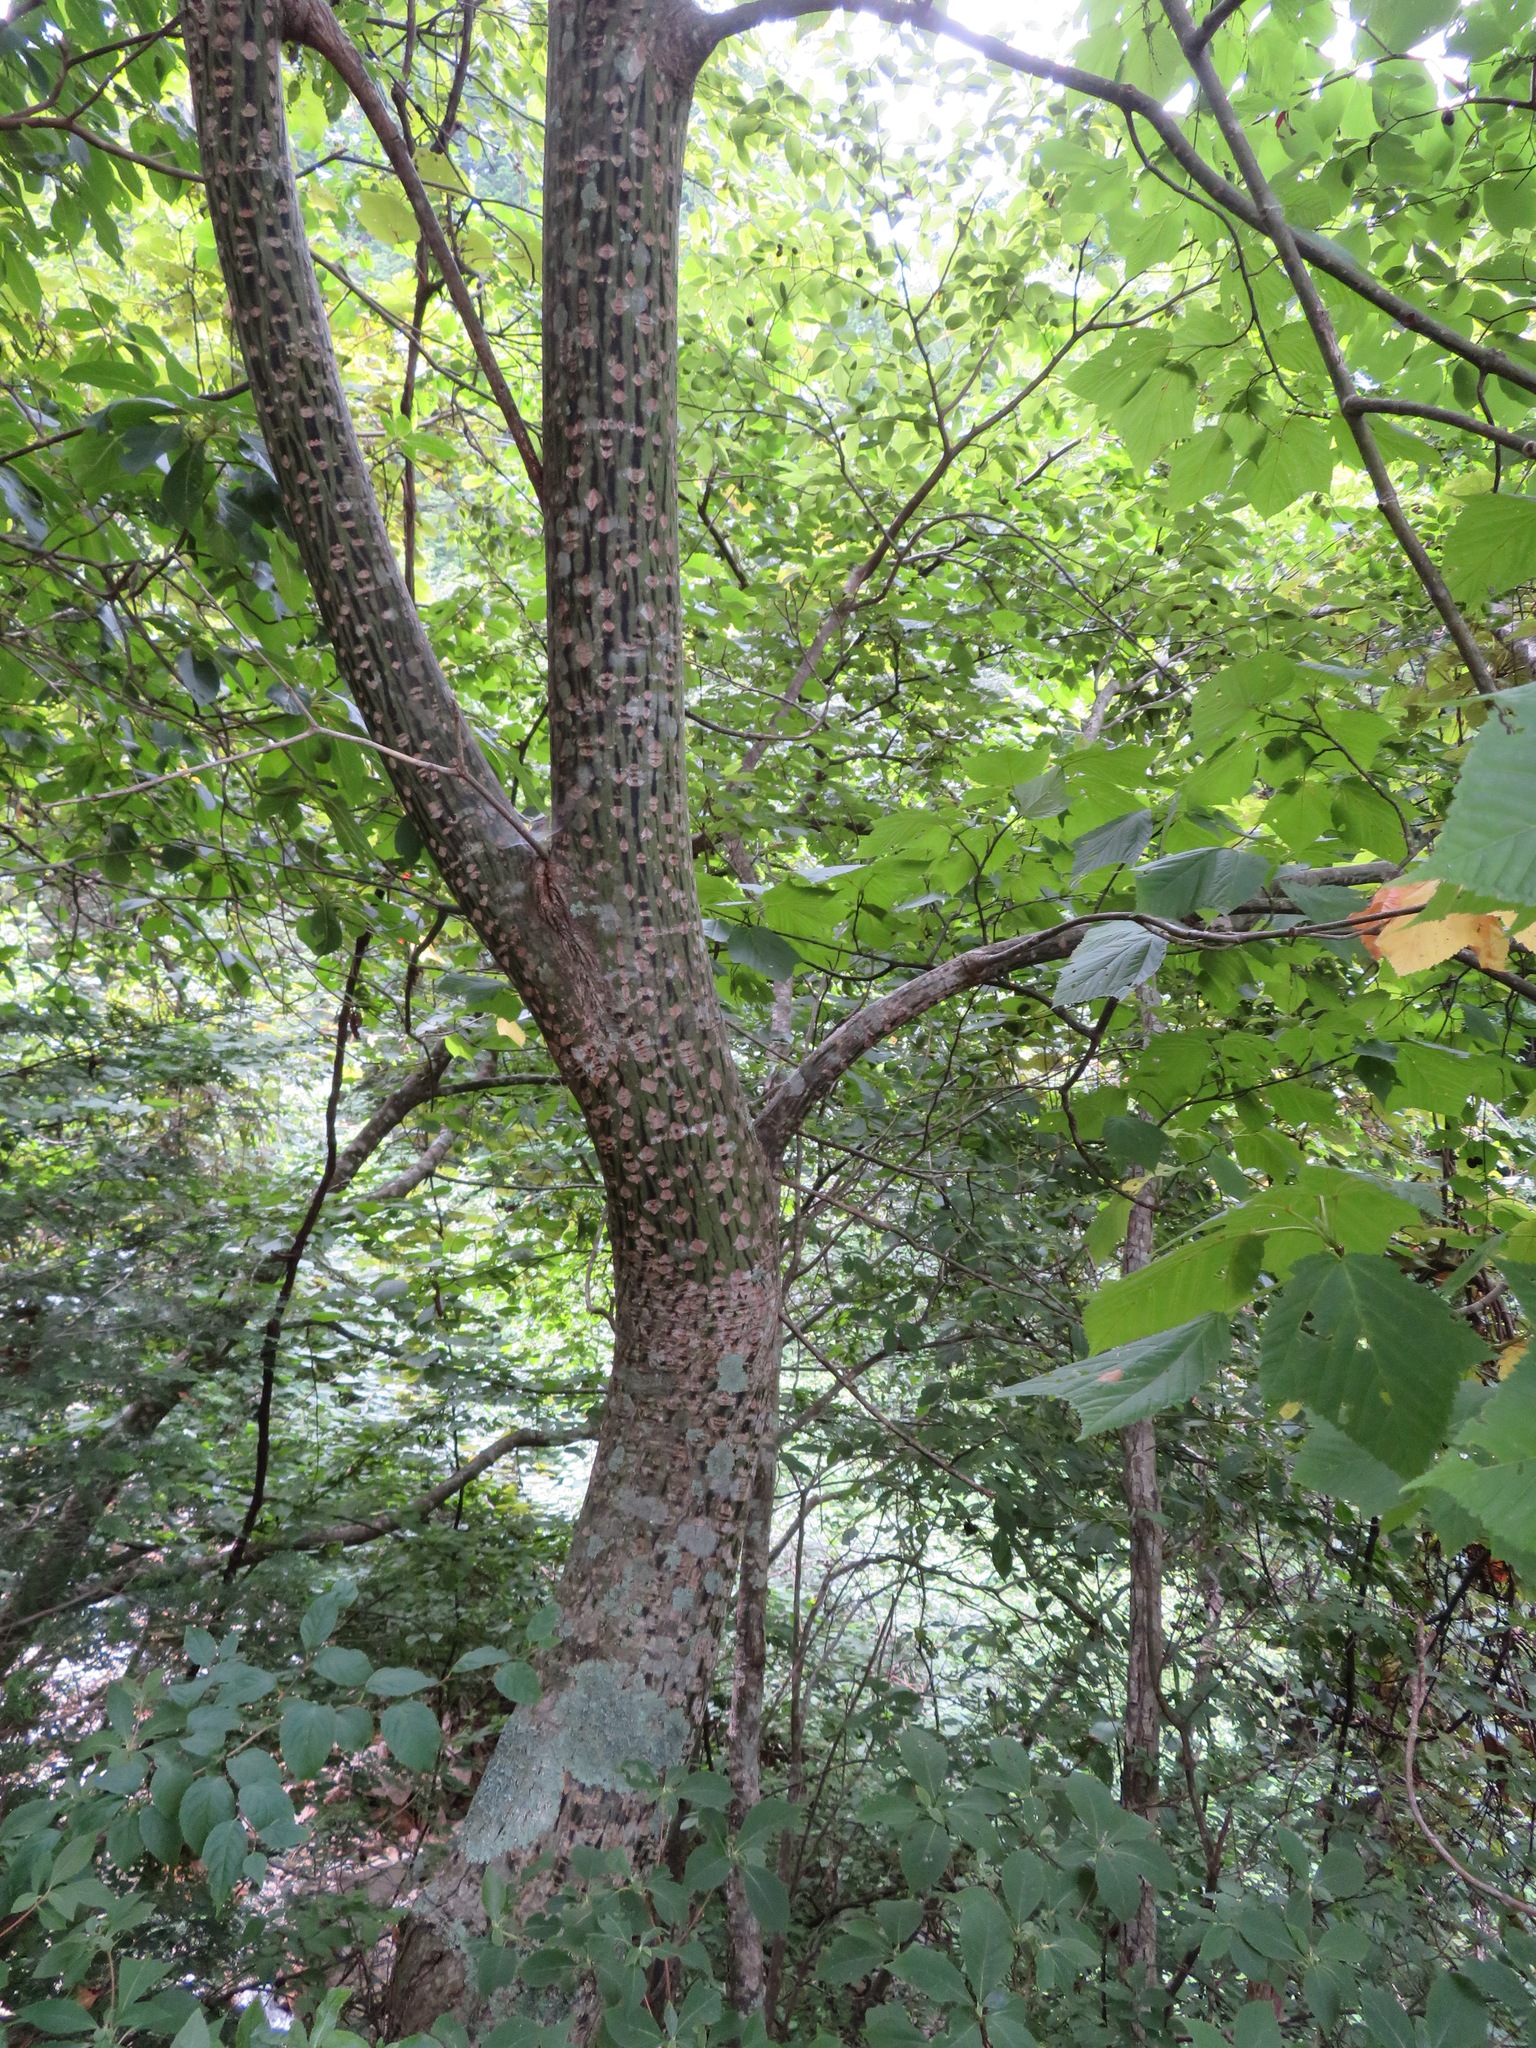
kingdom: Plantae
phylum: Tracheophyta
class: Magnoliopsida
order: Sapindales
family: Sapindaceae
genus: Acer
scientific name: Acer rufinerve
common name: Red veined maple
